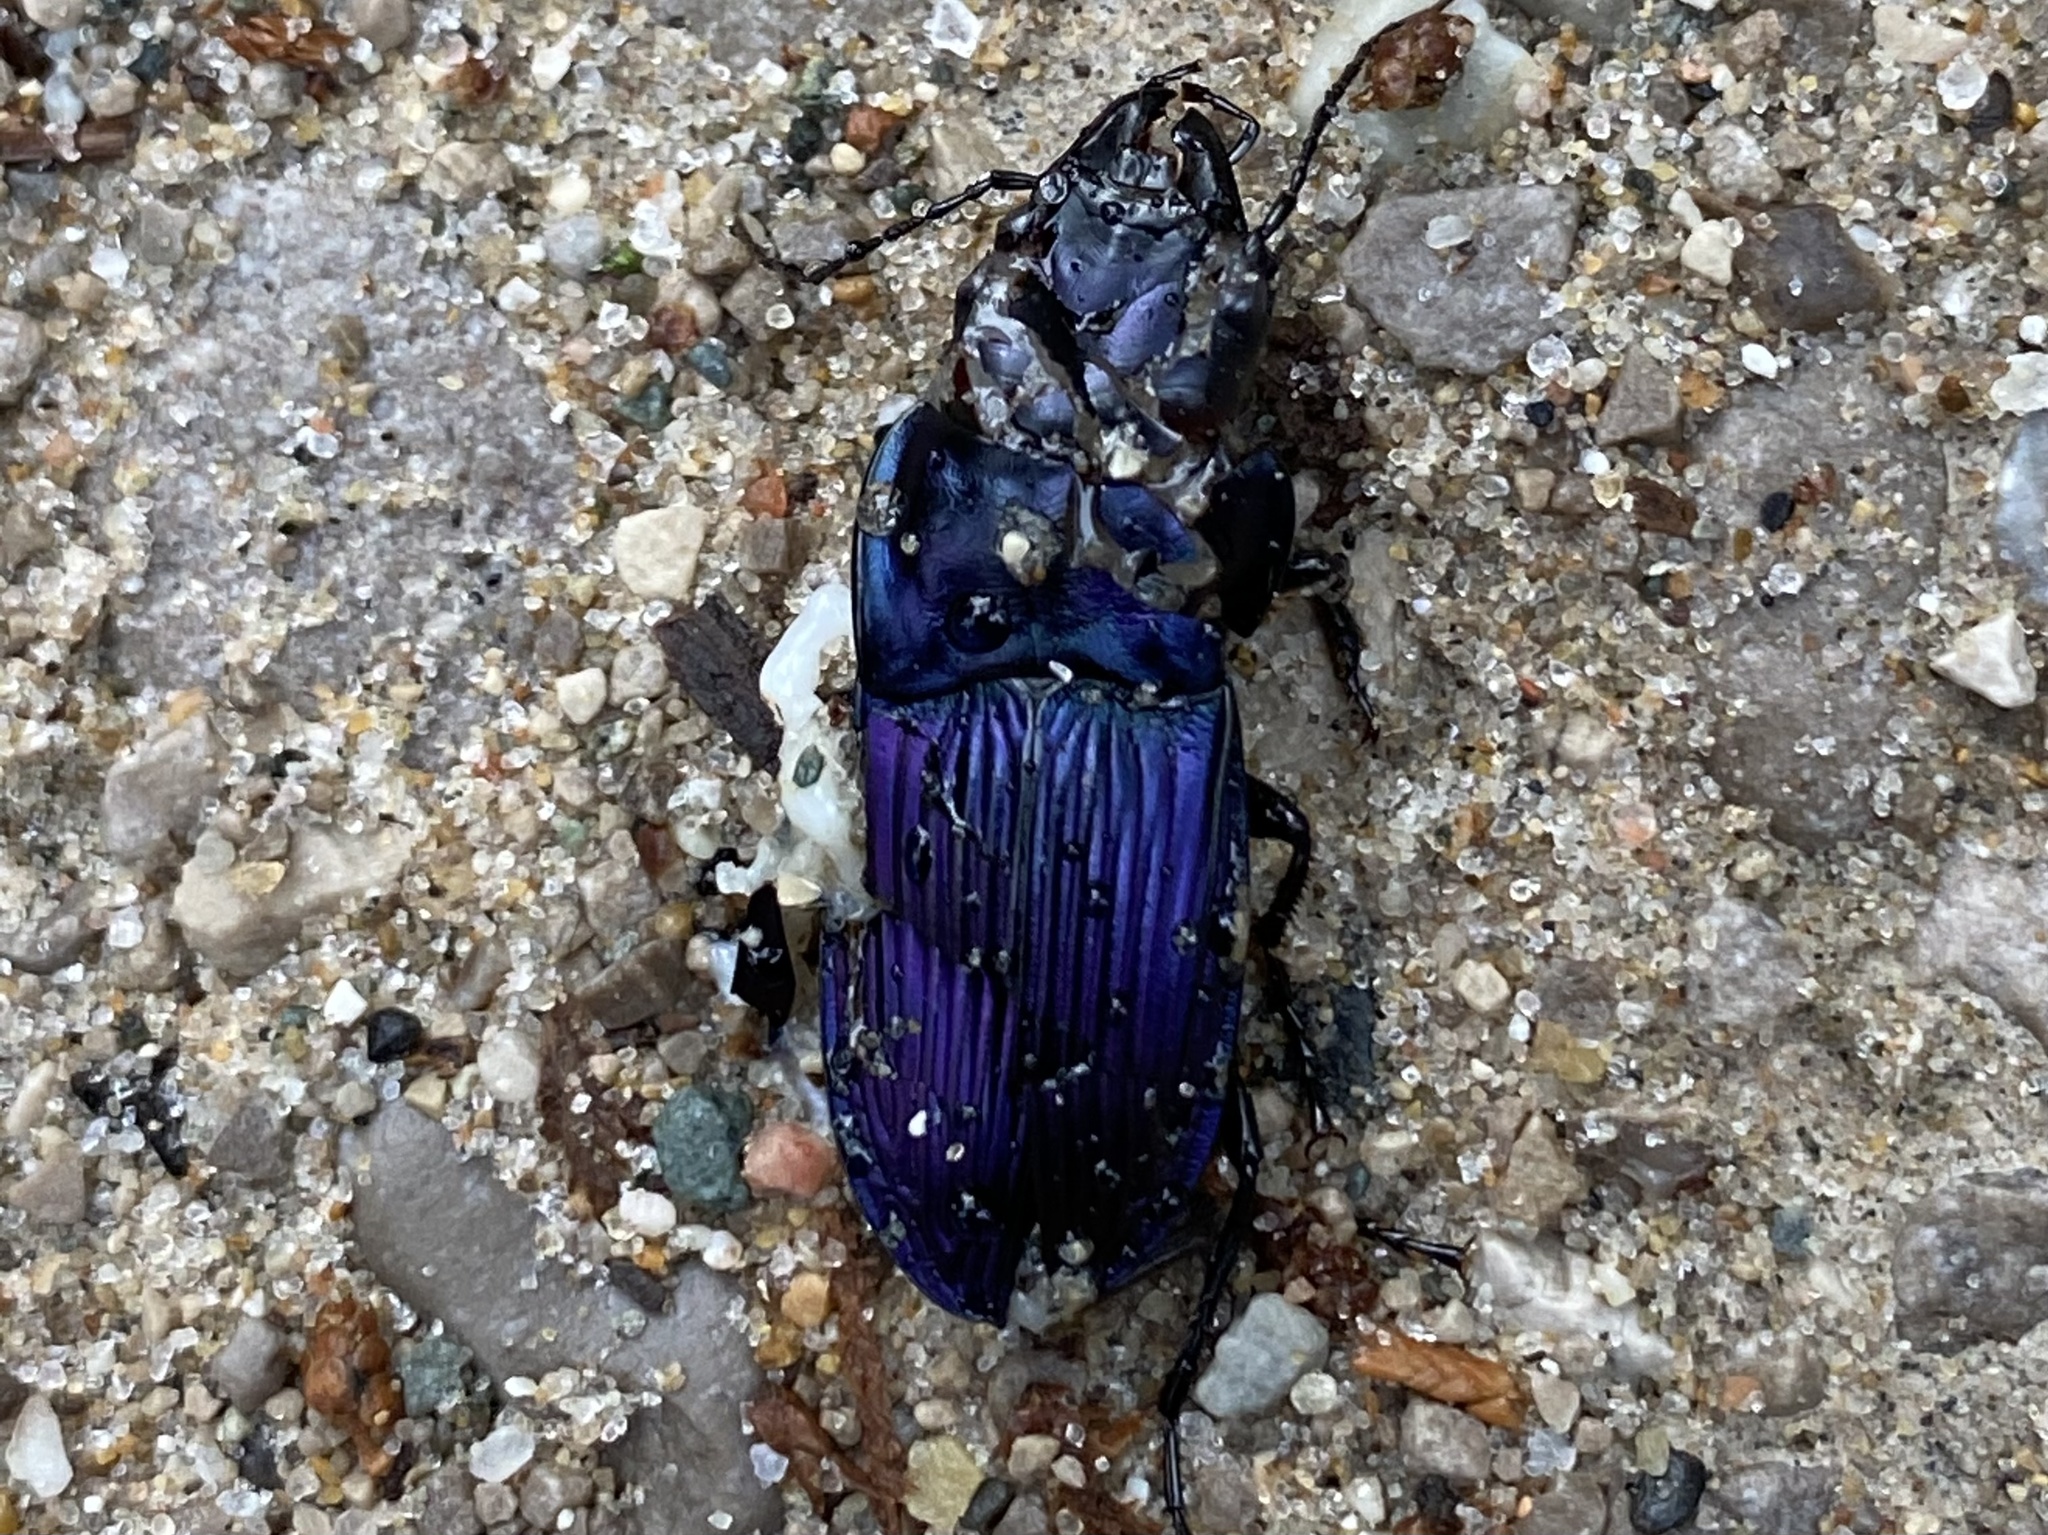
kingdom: Animalia
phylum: Arthropoda
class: Insecta
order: Coleoptera
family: Carabidae
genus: Dicaelus
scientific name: Dicaelus purpuratus
